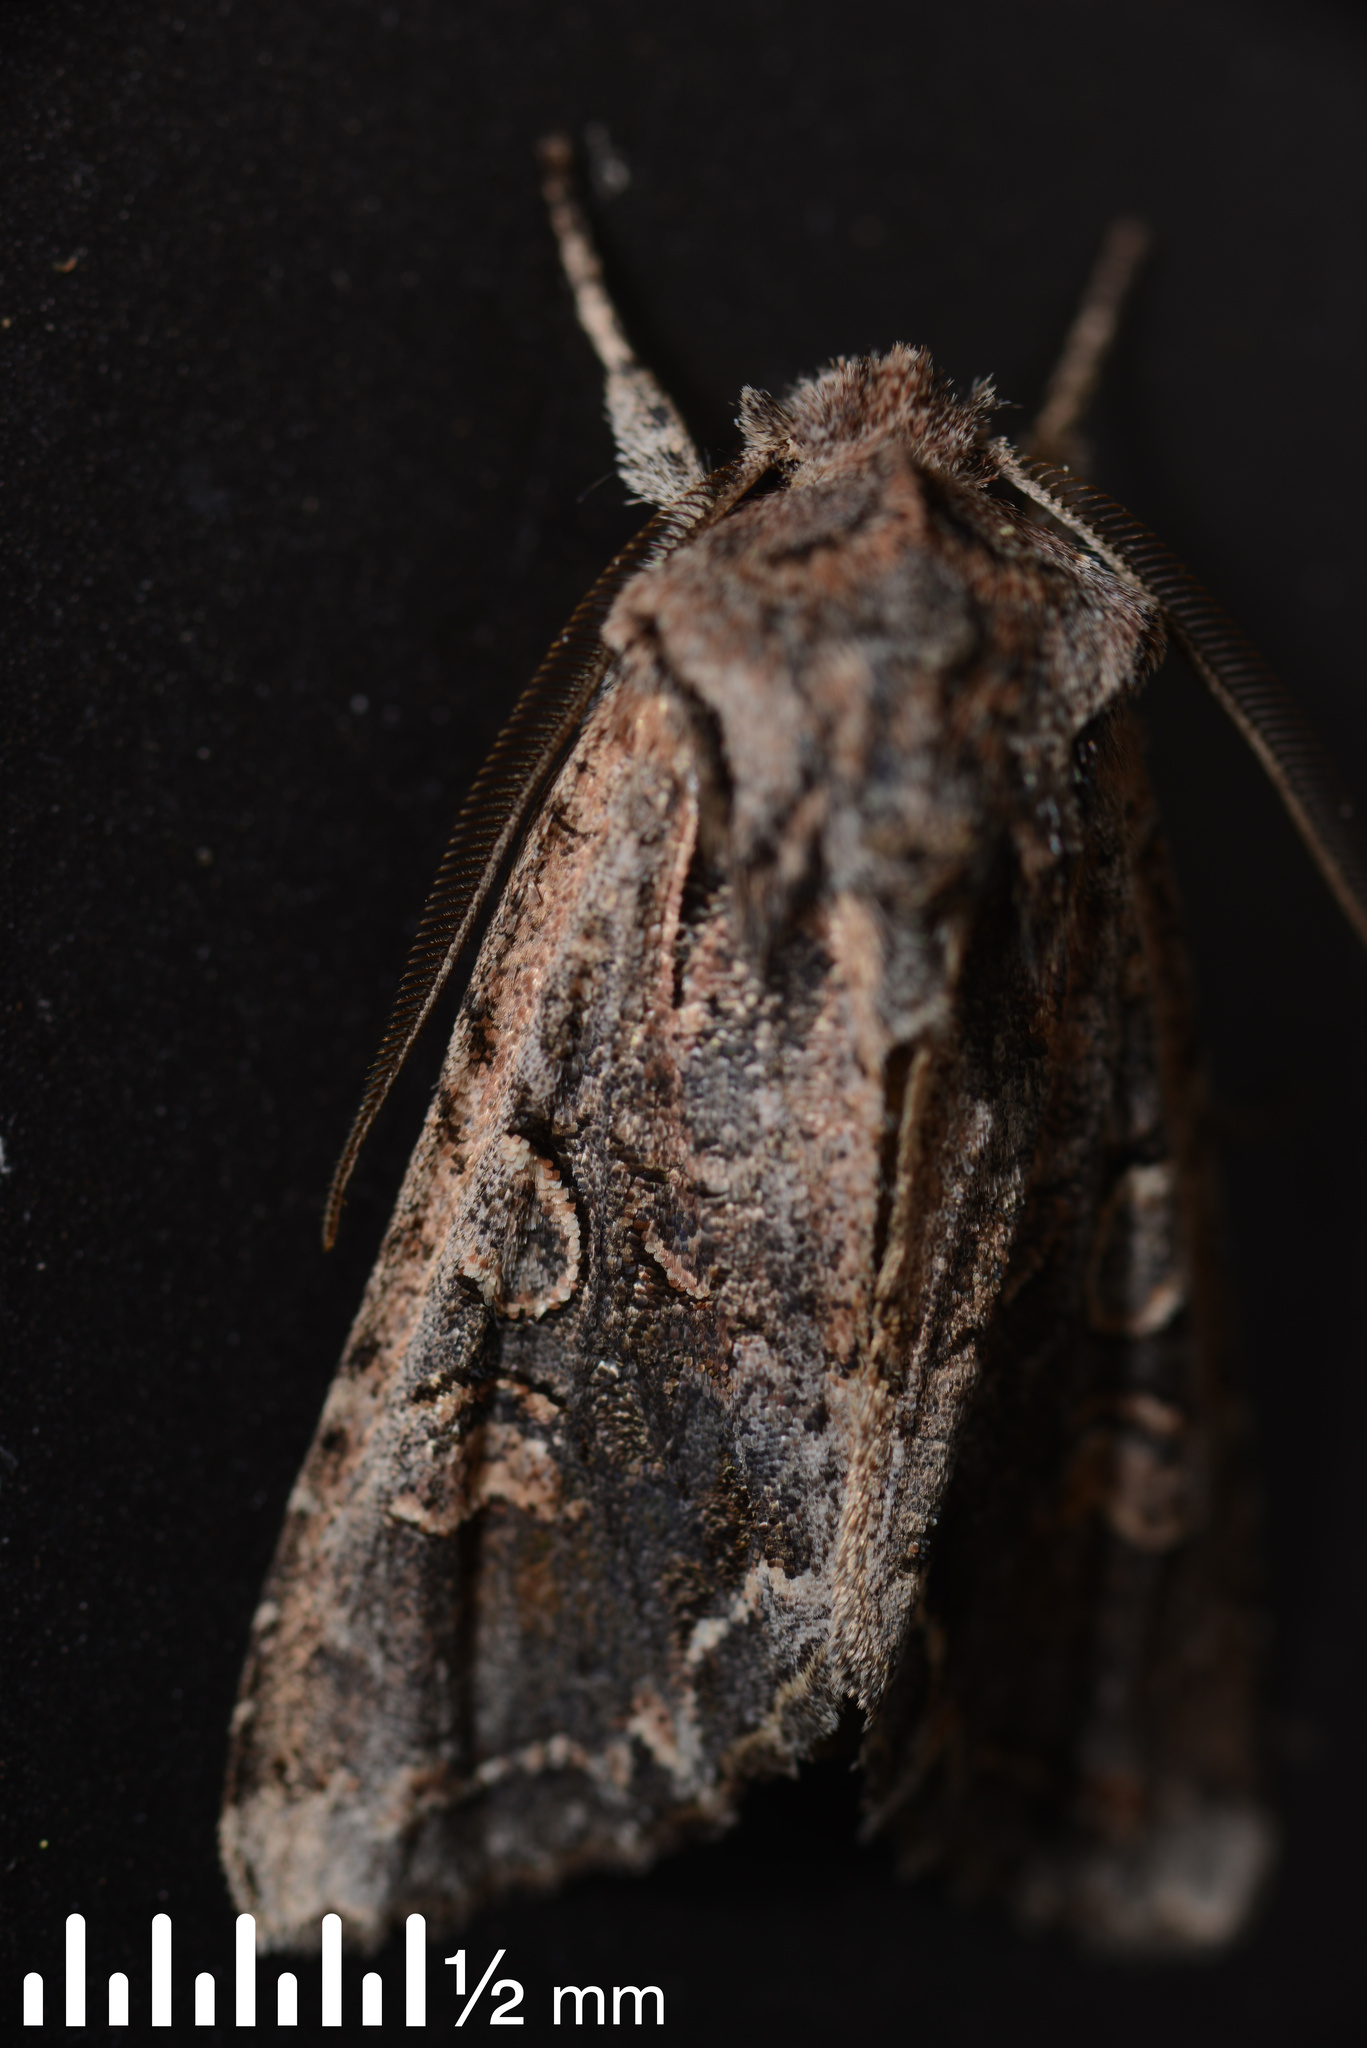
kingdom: Animalia
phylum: Arthropoda
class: Insecta
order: Lepidoptera
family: Noctuidae
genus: Ichneutica
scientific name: Ichneutica
